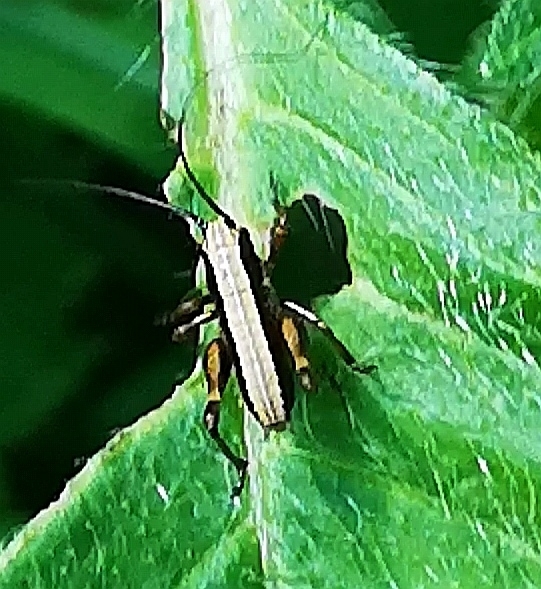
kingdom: Animalia
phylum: Arthropoda
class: Insecta
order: Orthoptera
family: Tettigoniidae
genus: Pholidoptera
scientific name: Pholidoptera griseoaptera
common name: Dark bush-cricket
